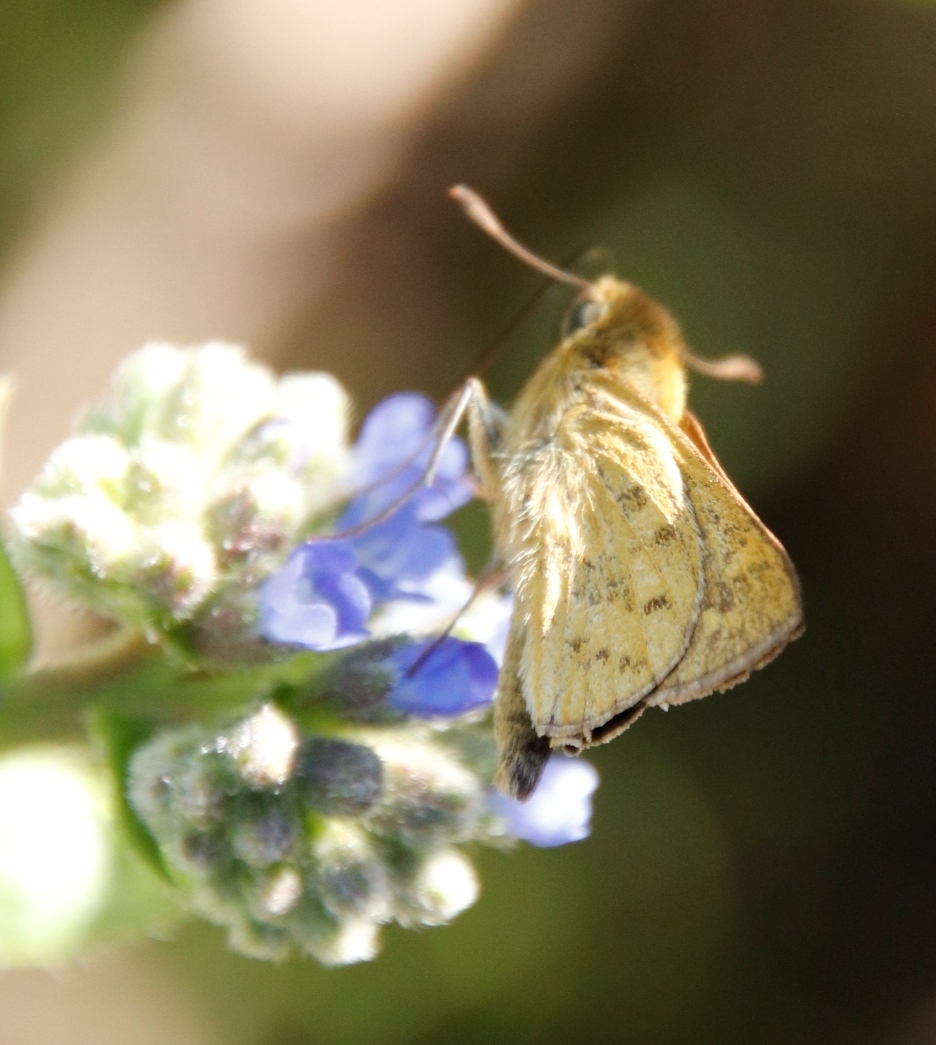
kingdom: Animalia
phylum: Arthropoda
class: Insecta
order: Hymenoptera
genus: Afrogenes
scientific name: Afrogenes
